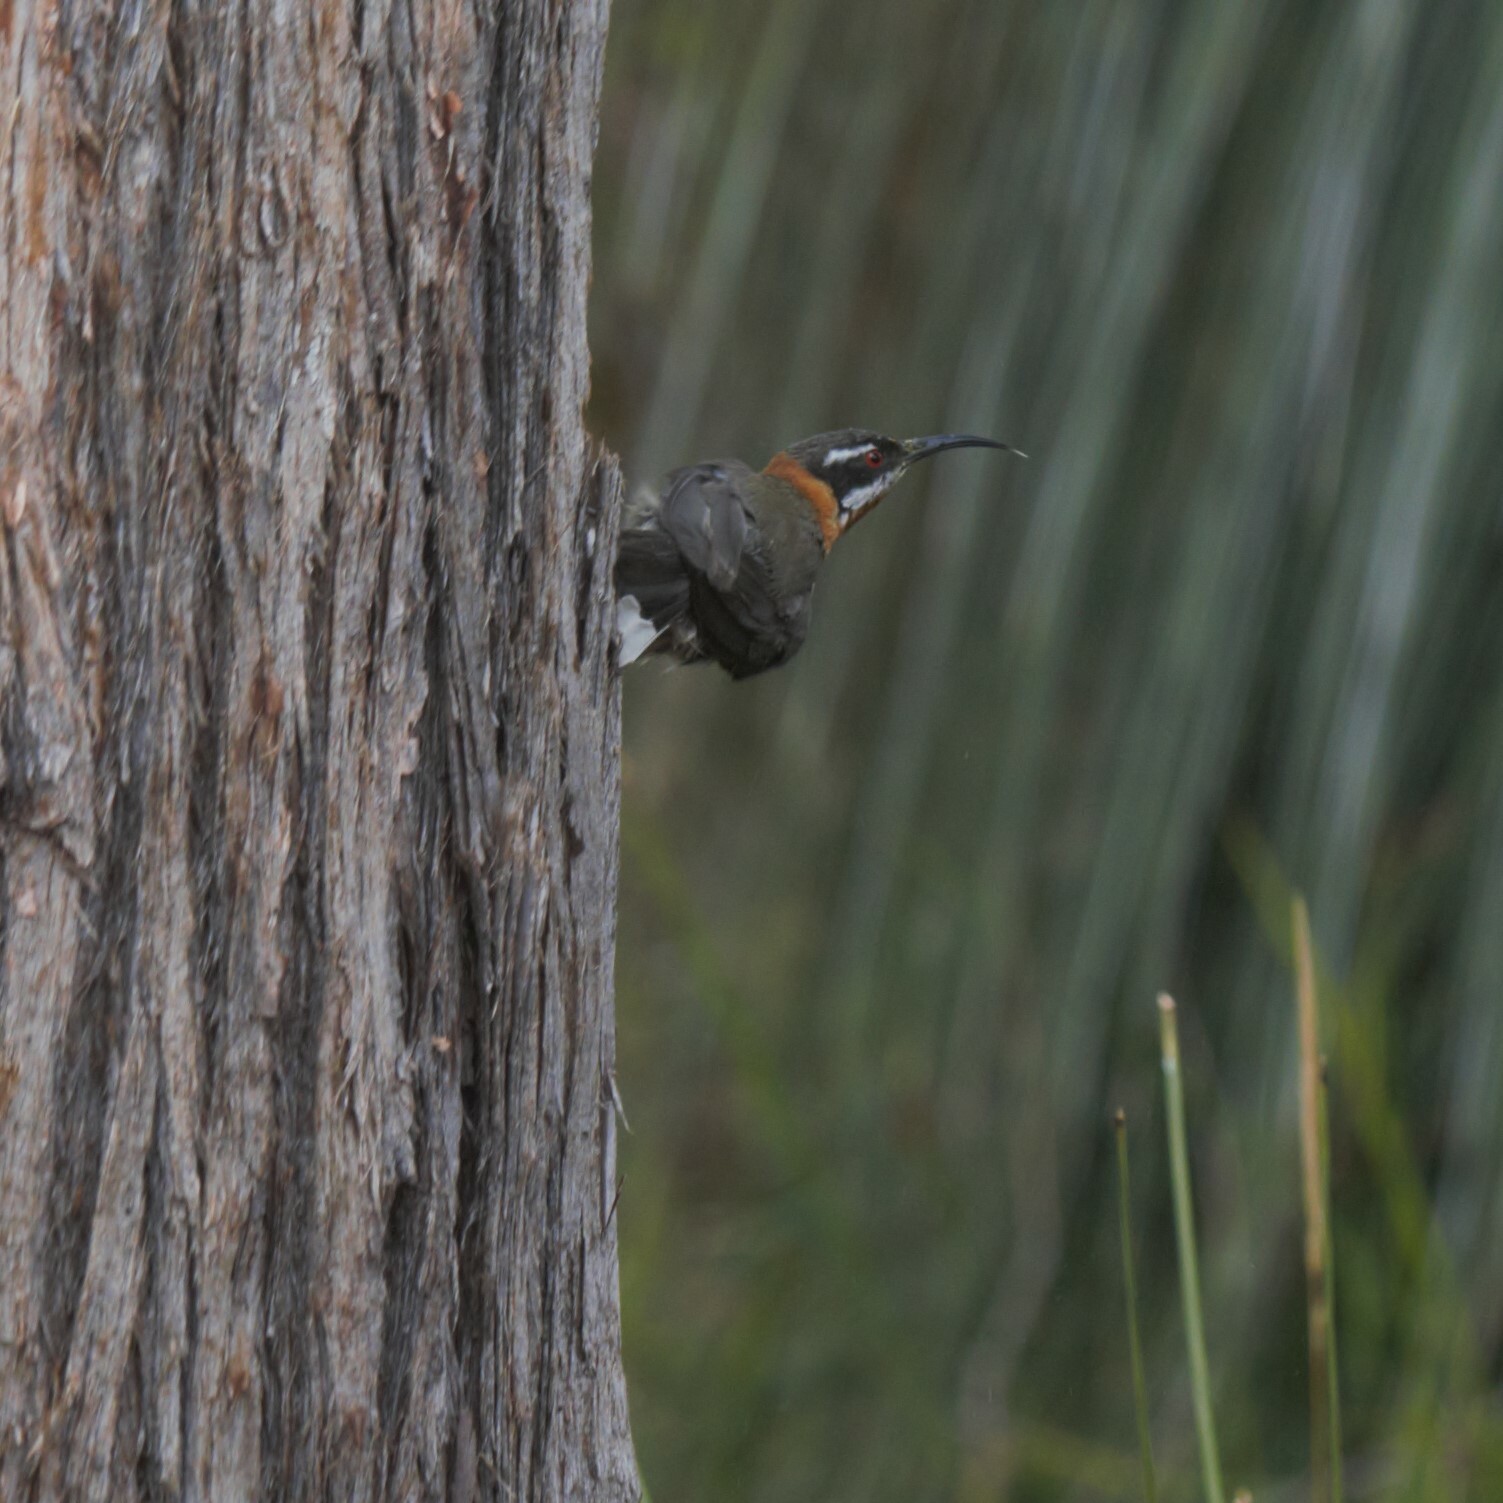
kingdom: Animalia
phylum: Chordata
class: Aves
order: Passeriformes
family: Meliphagidae
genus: Acanthorhynchus
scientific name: Acanthorhynchus superciliosus
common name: Western spinebill
